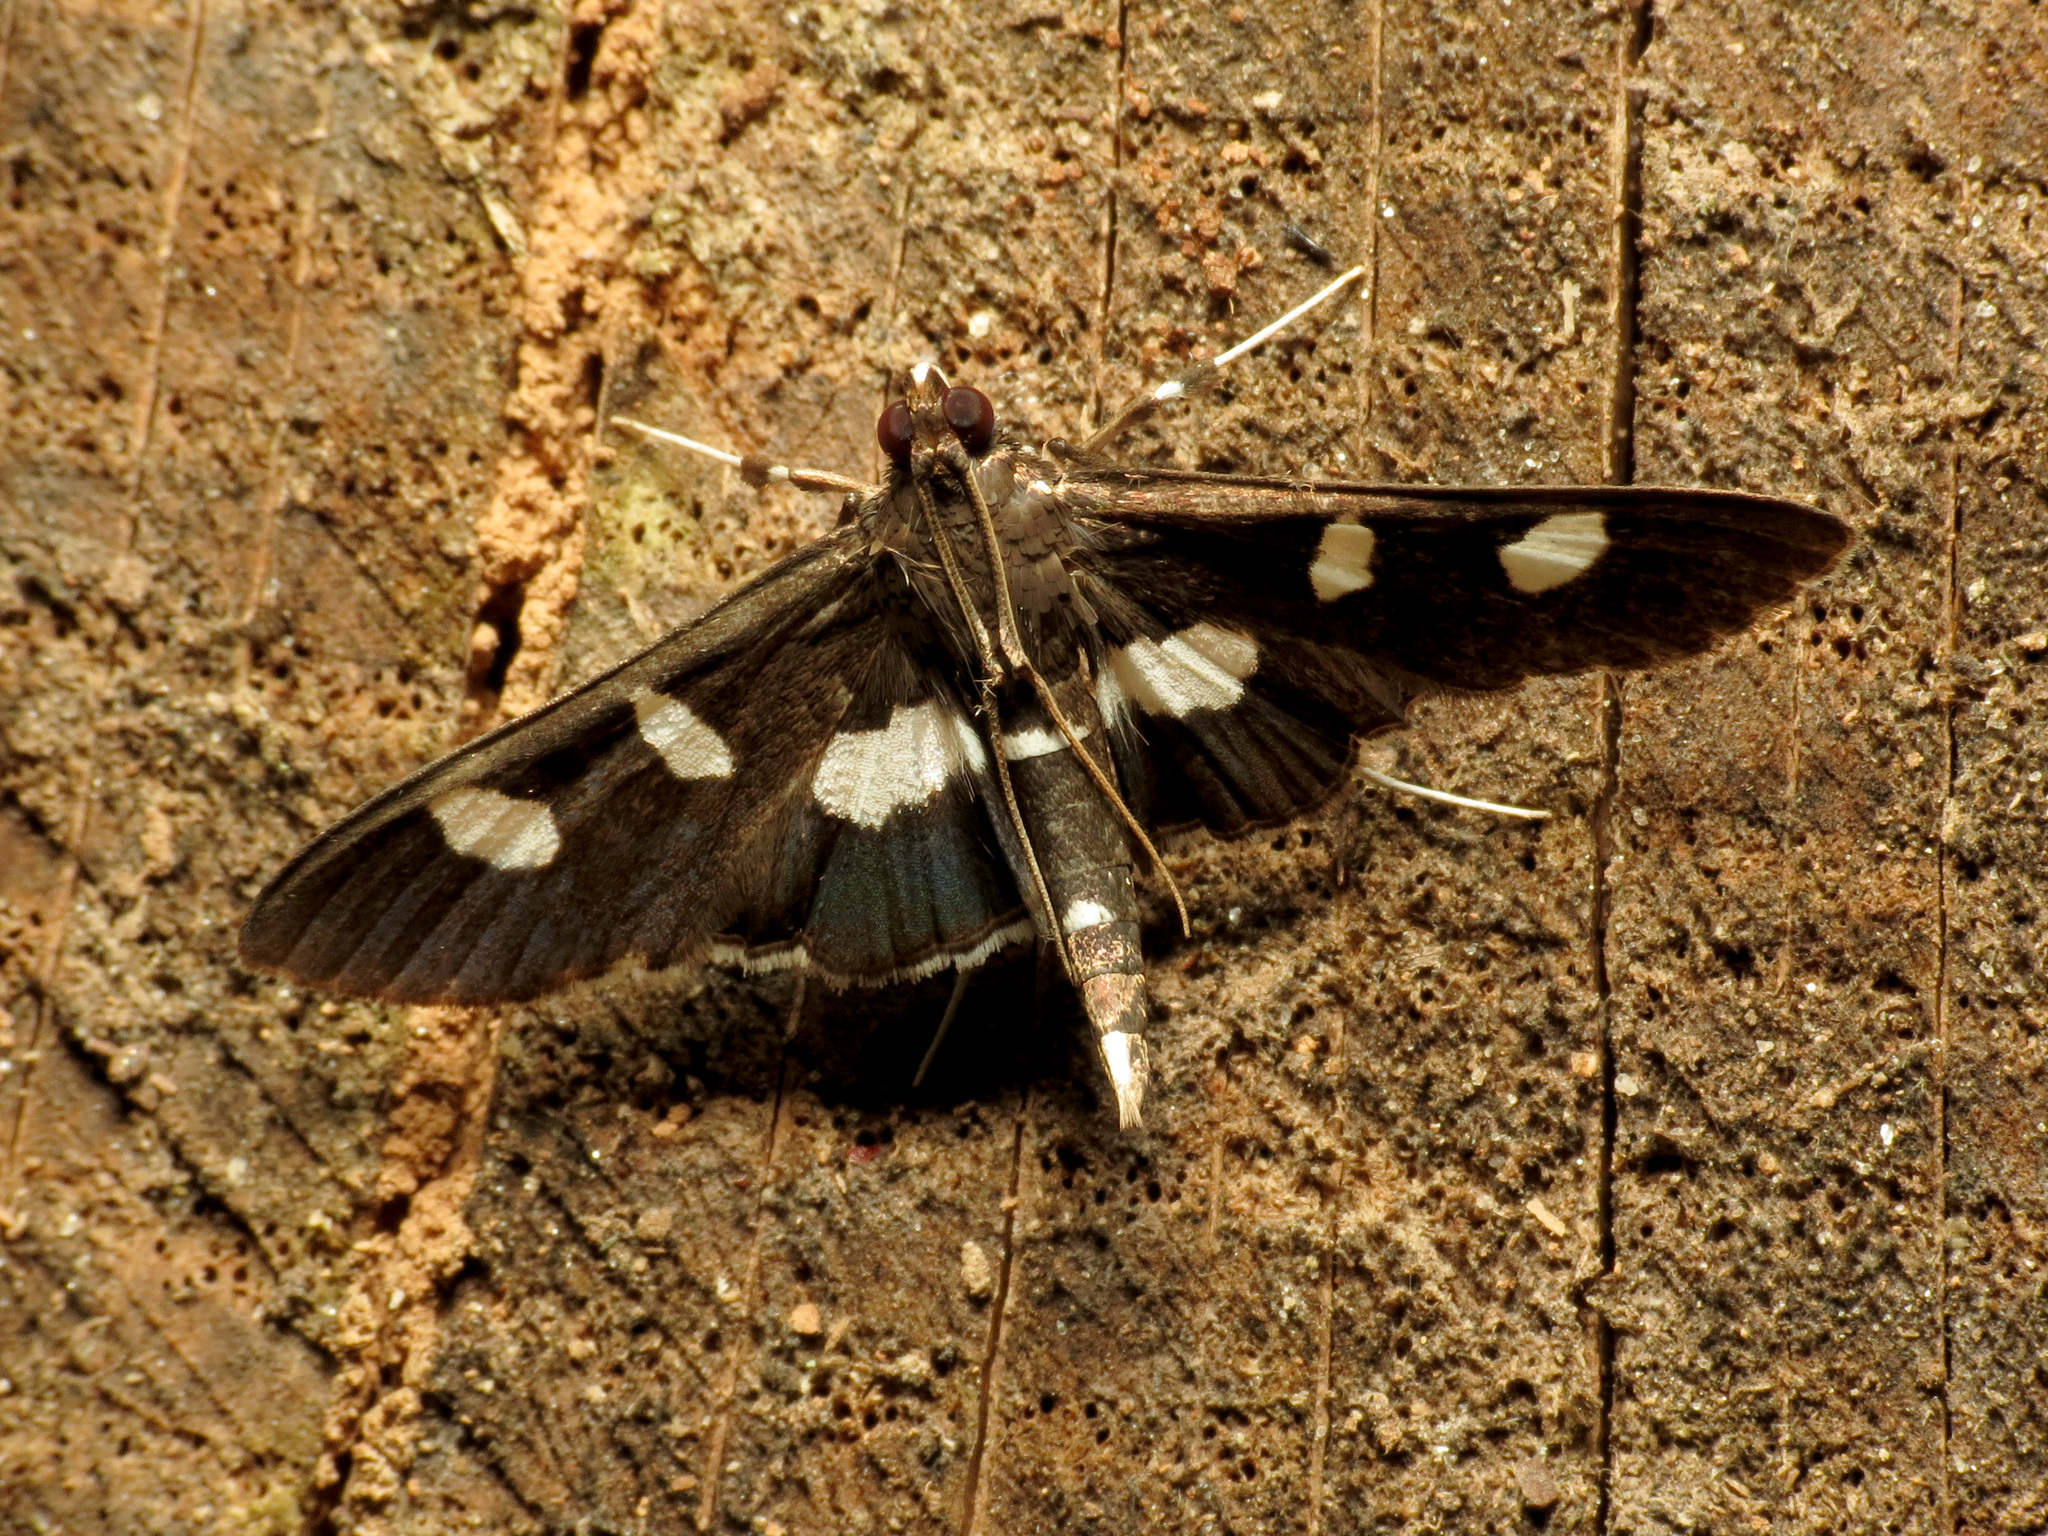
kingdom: Animalia
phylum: Arthropoda
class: Insecta
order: Lepidoptera
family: Crambidae
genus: Desmia
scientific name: Desmia
